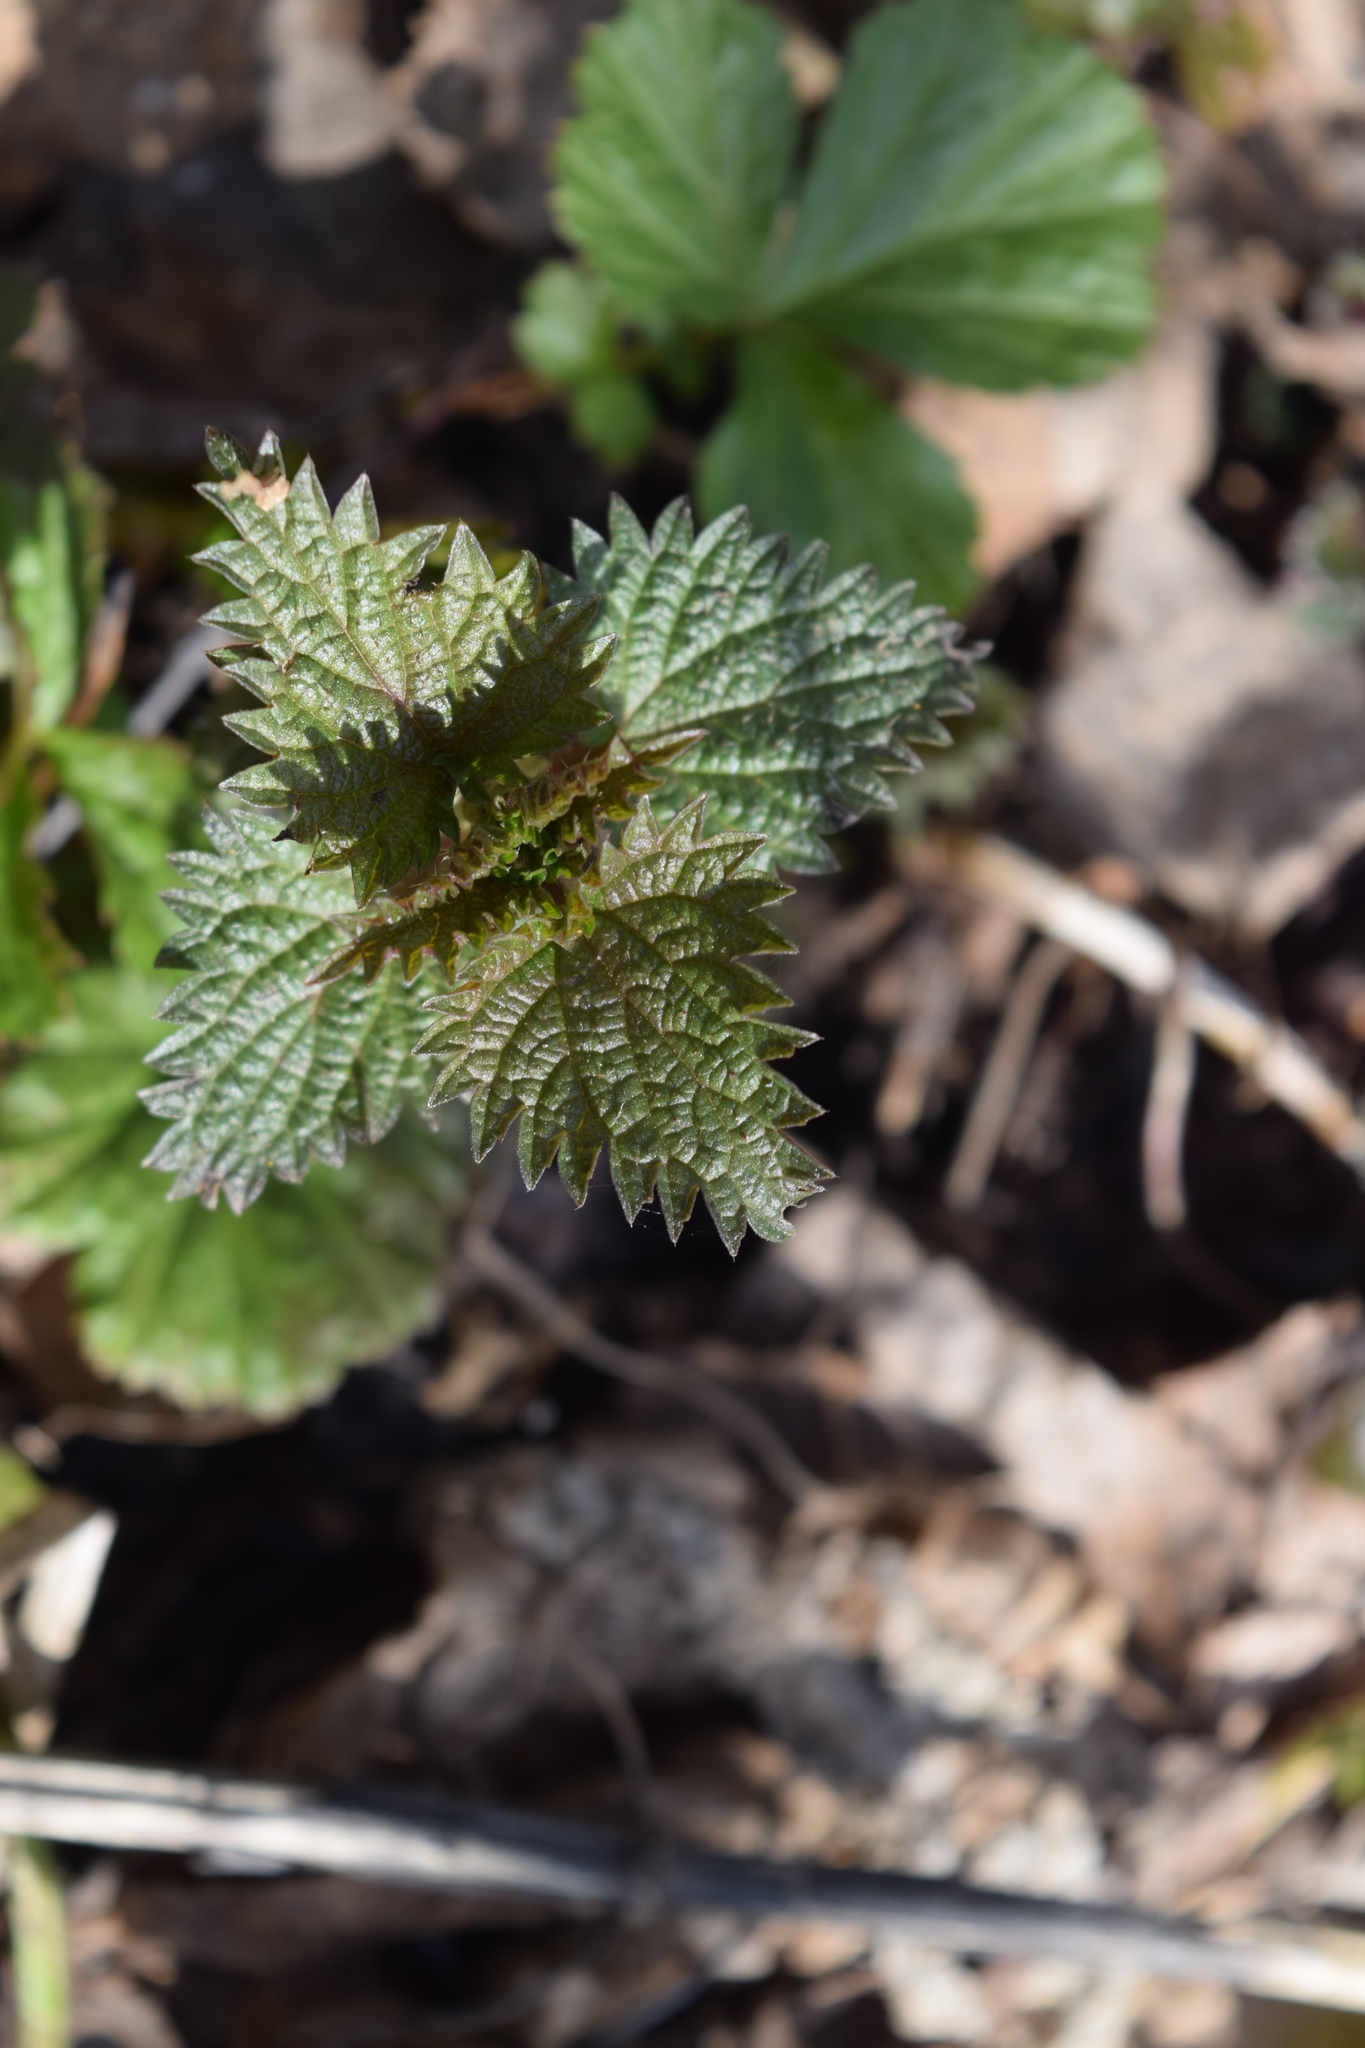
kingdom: Plantae
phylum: Tracheophyta
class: Magnoliopsida
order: Rosales
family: Urticaceae
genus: Urtica
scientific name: Urtica dioica
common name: Common nettle
